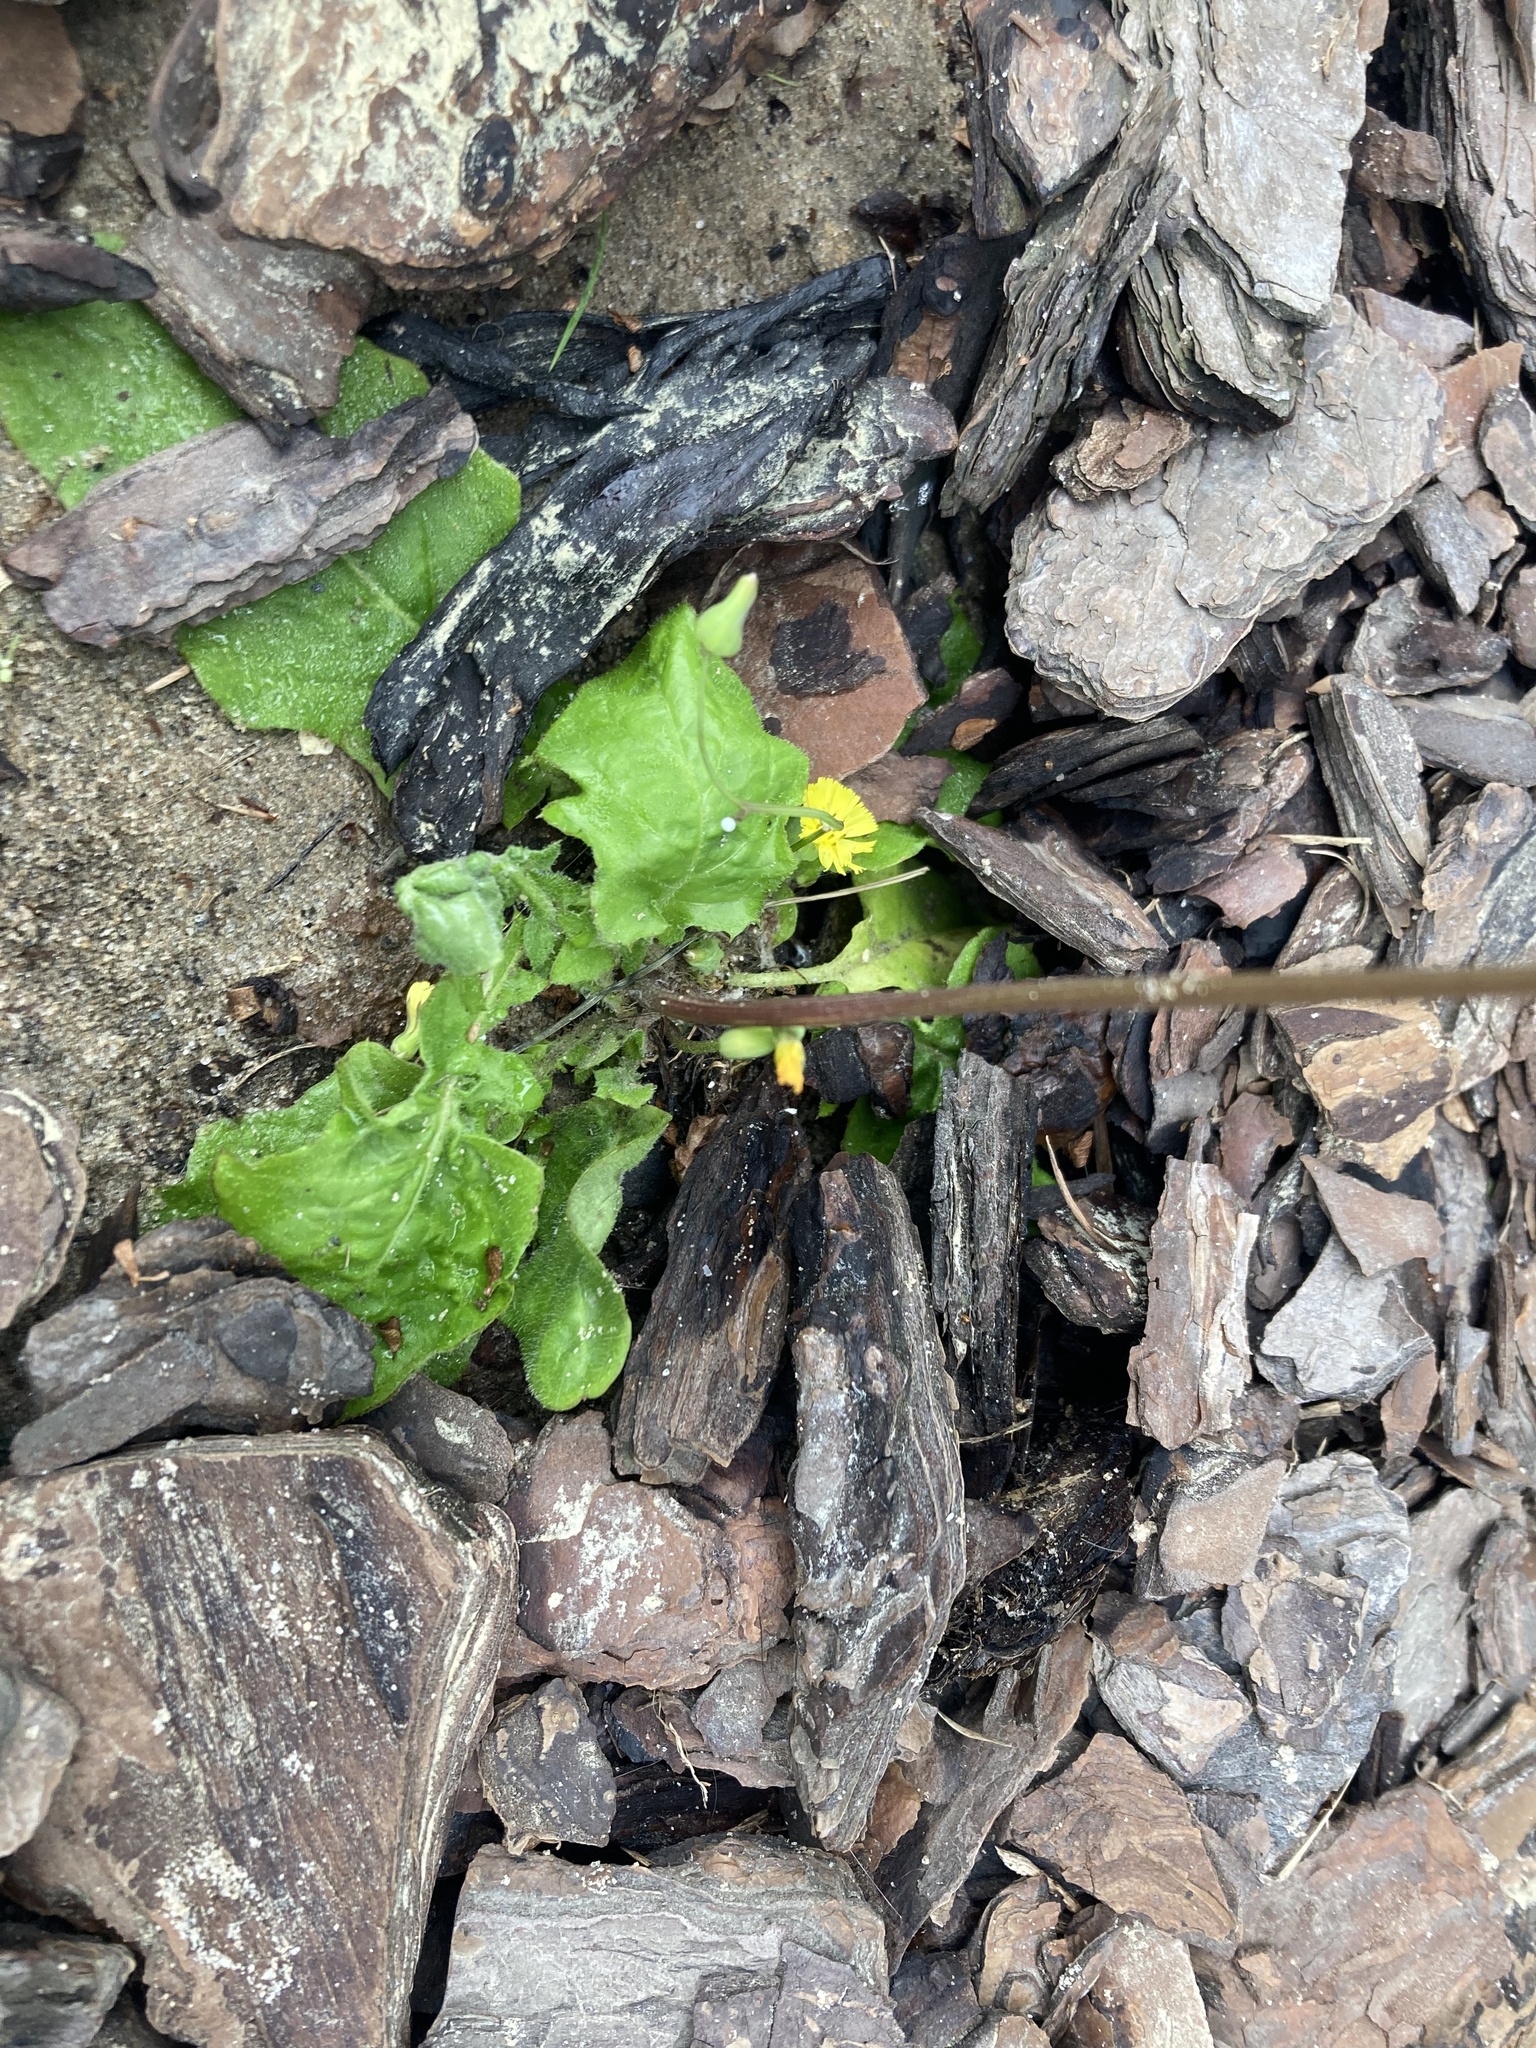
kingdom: Plantae
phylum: Tracheophyta
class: Magnoliopsida
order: Asterales
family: Asteraceae
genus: Youngia
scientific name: Youngia japonica
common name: Oriental false hawksbeard
